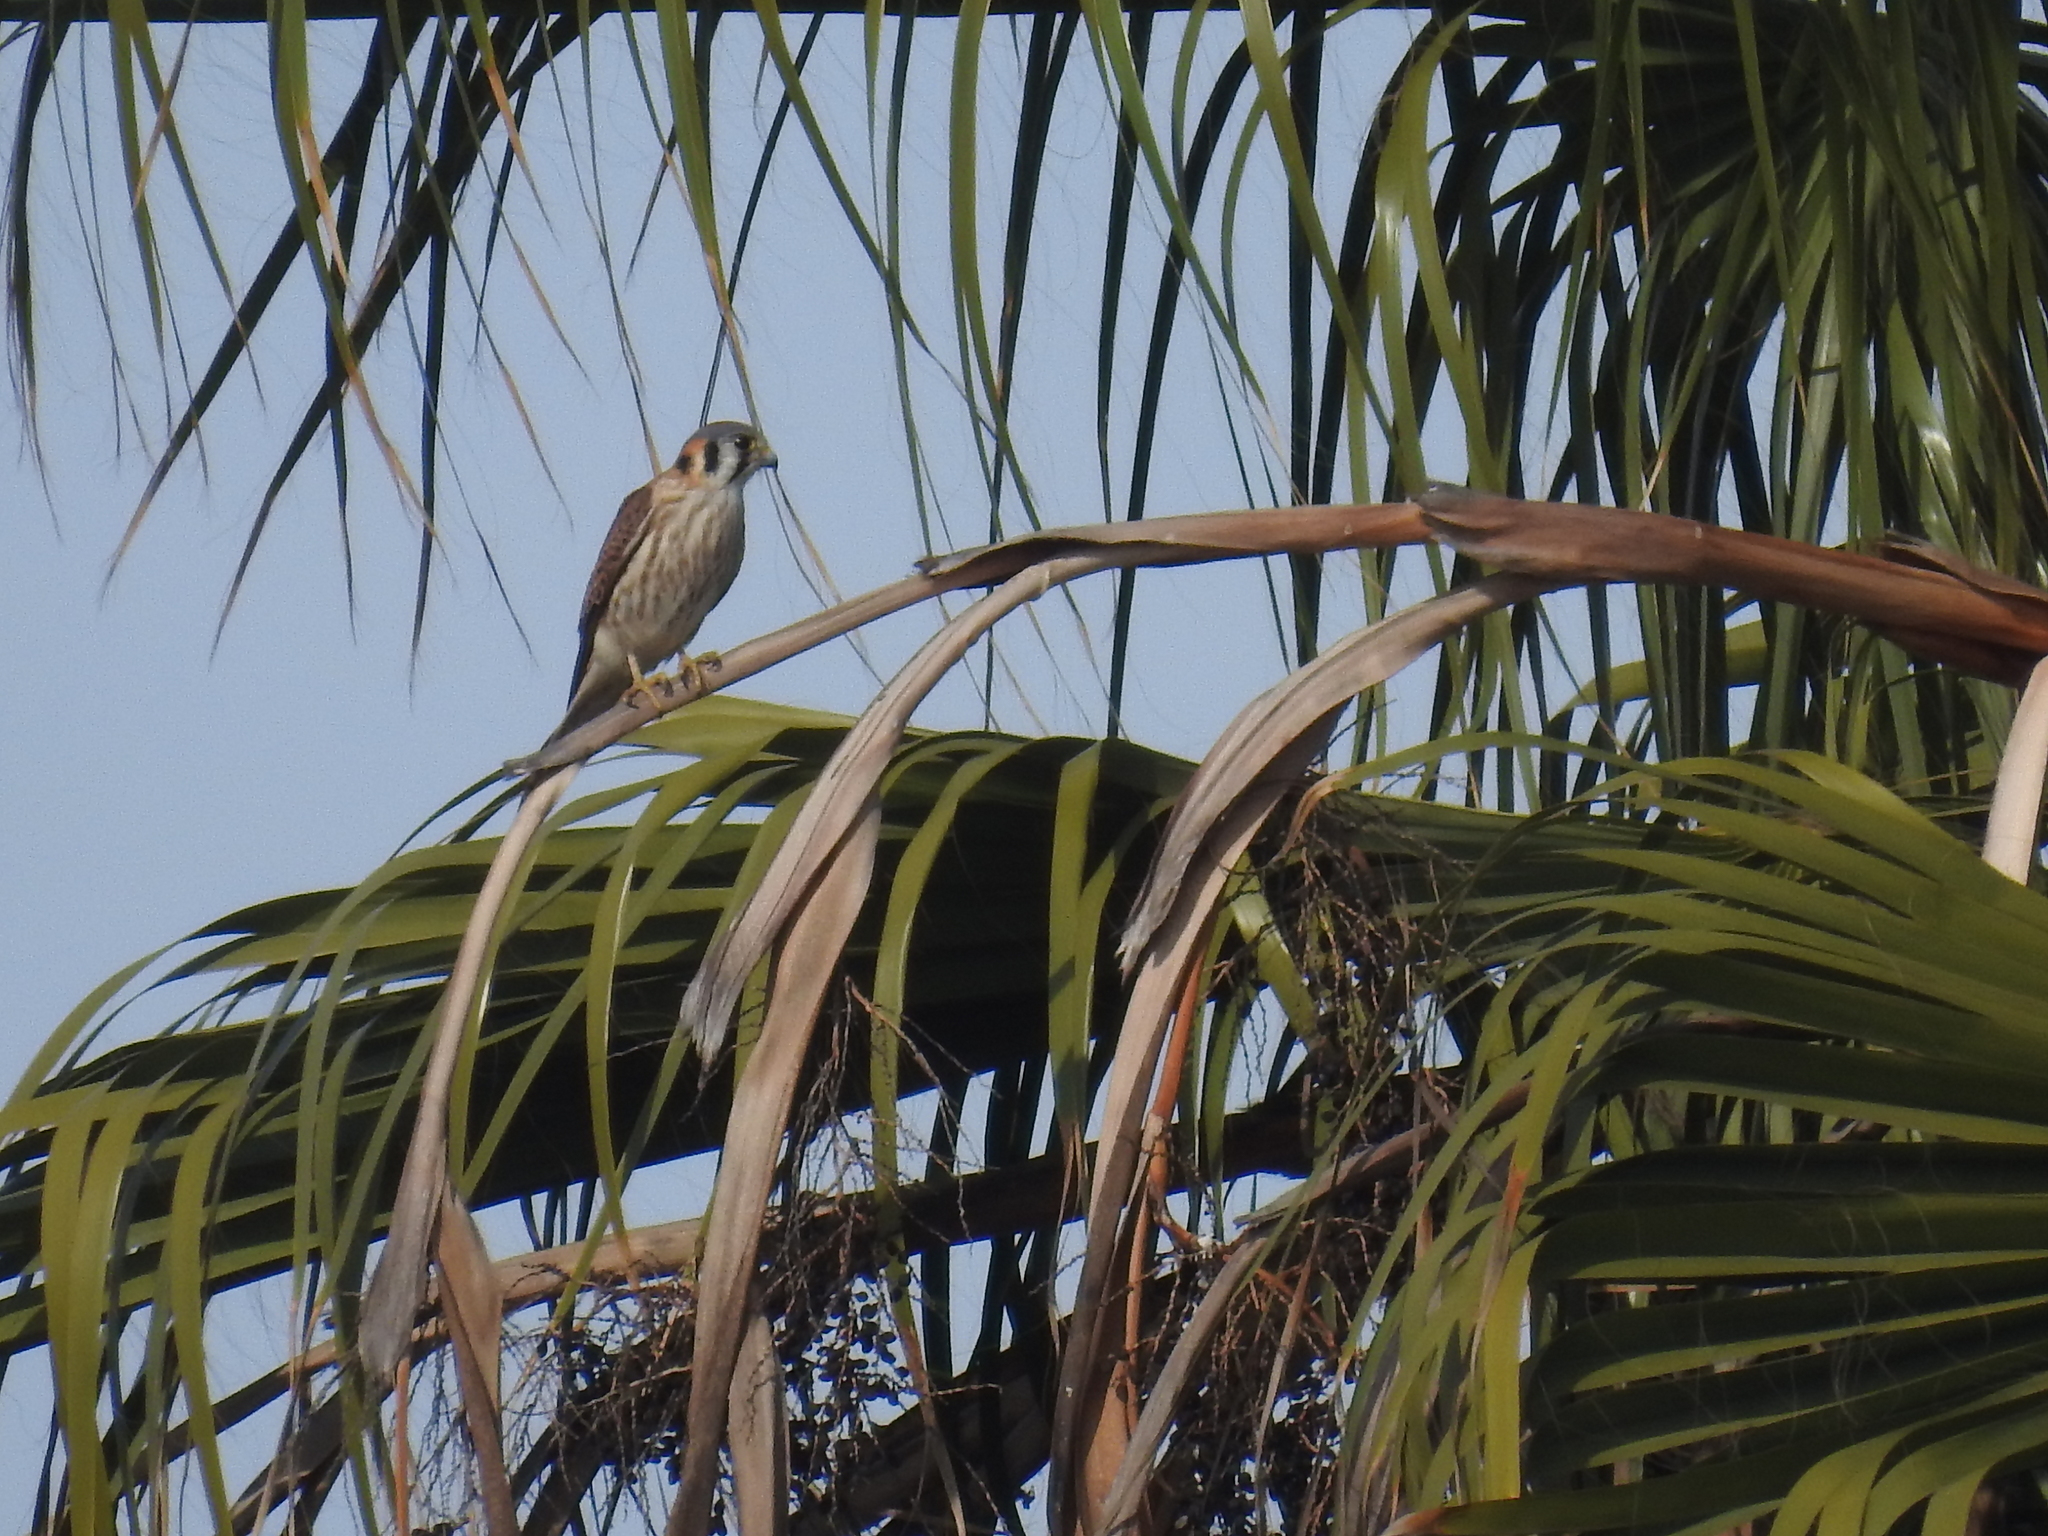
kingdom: Animalia
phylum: Chordata
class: Aves
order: Falconiformes
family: Falconidae
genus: Falco
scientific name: Falco sparverius
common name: American kestrel
